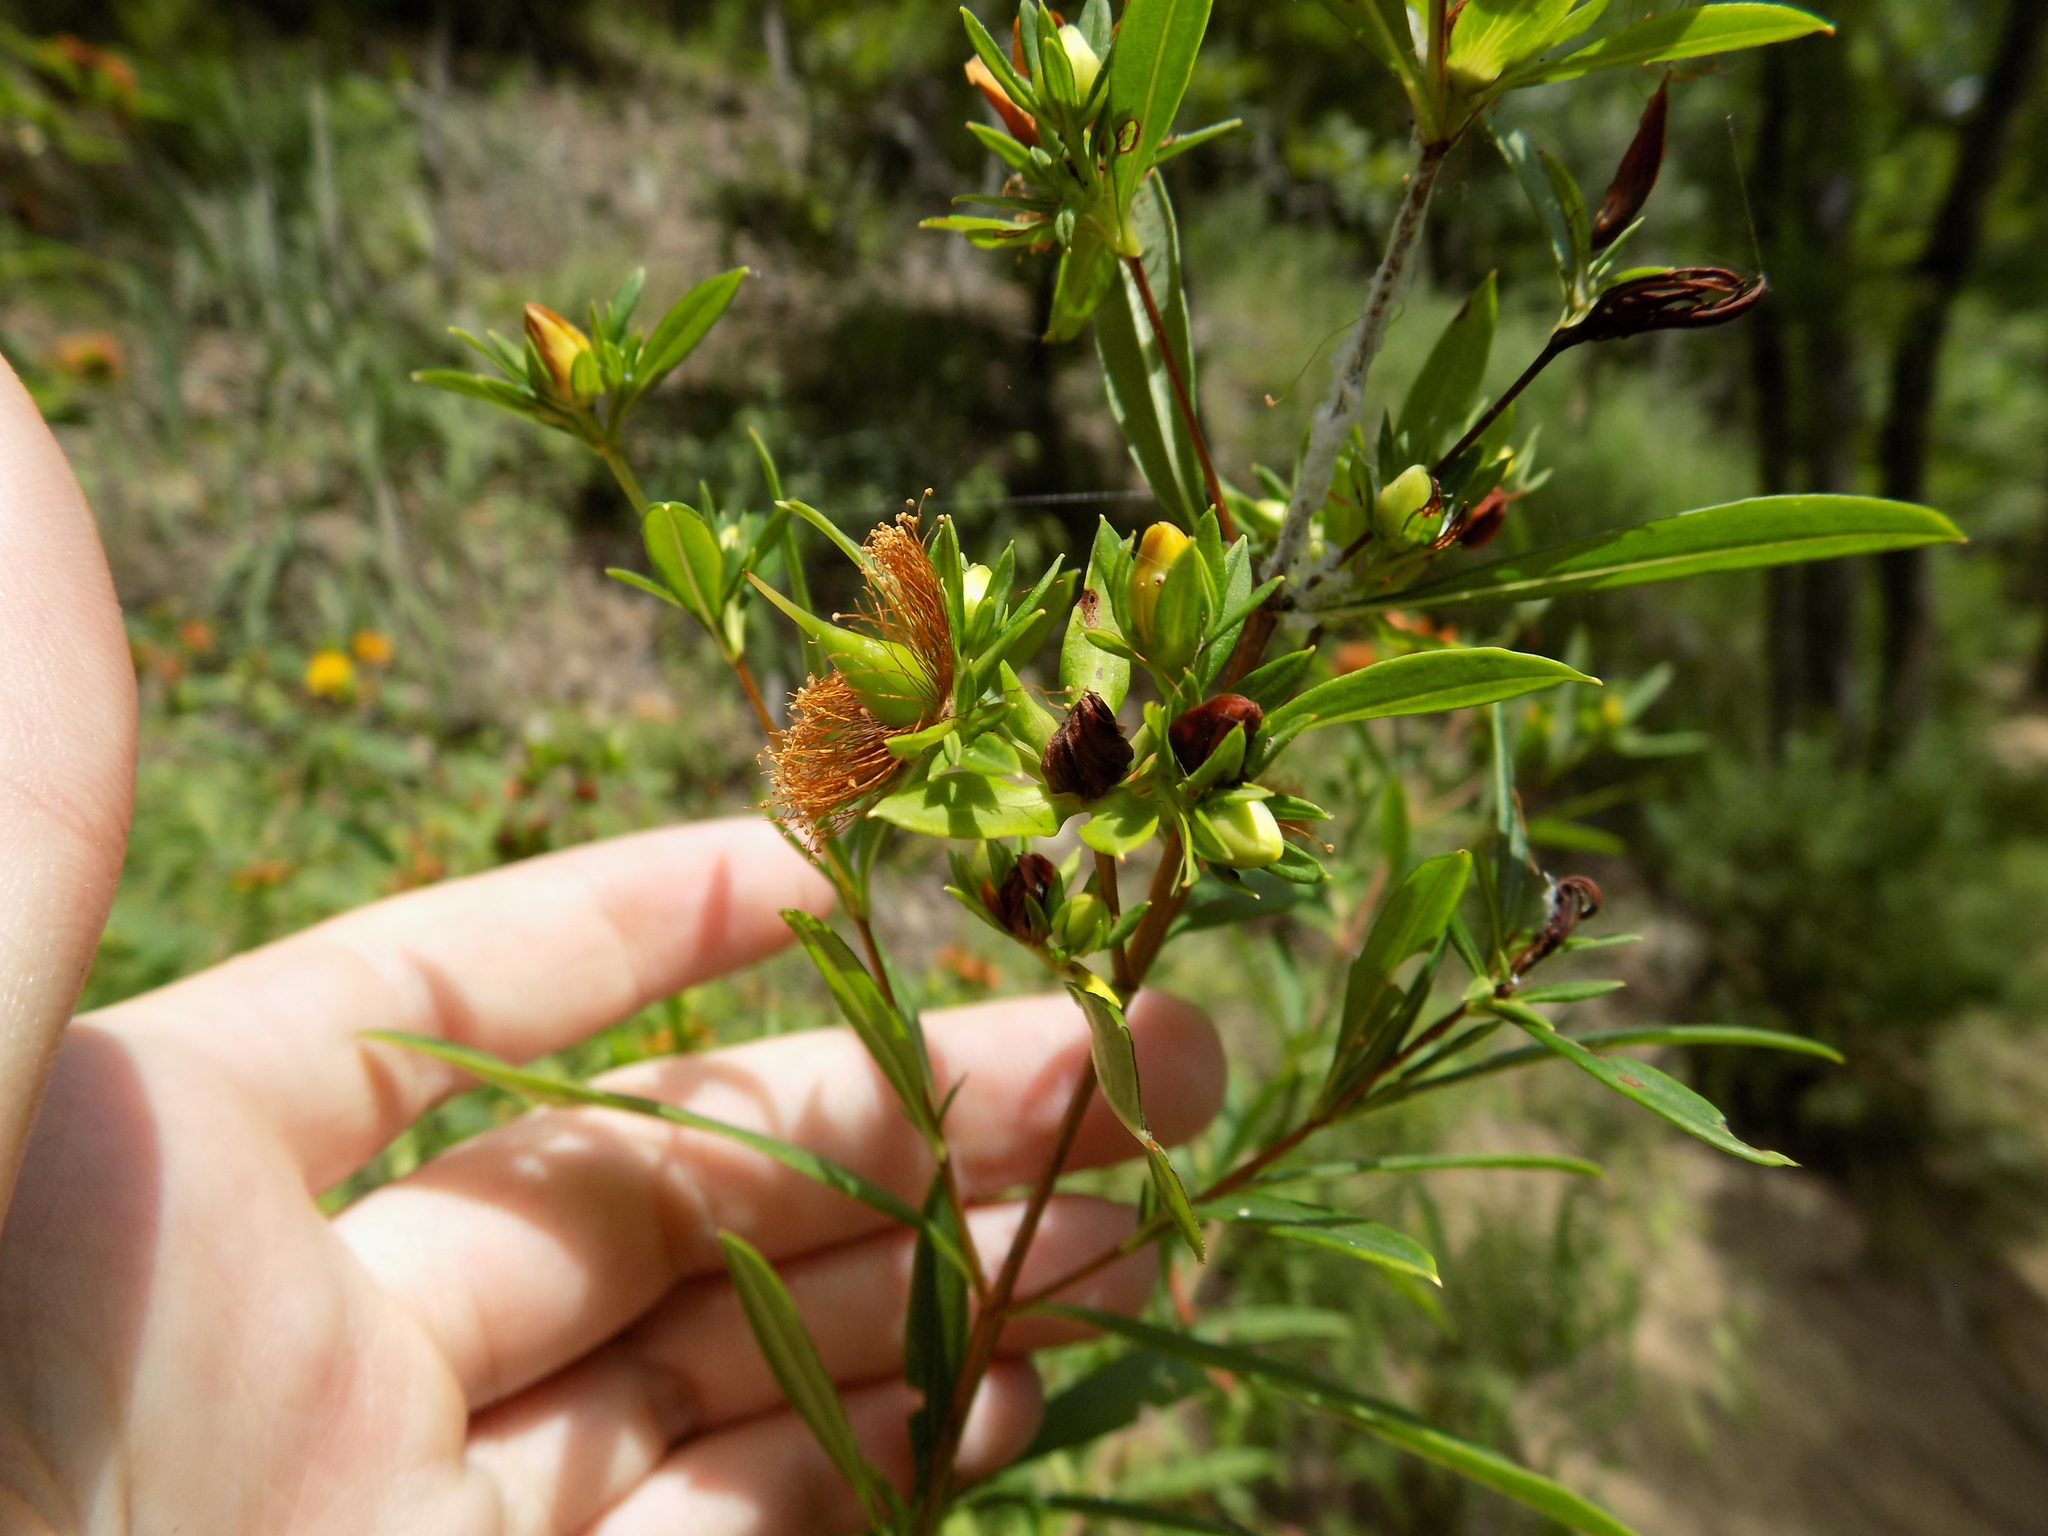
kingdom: Plantae
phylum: Tracheophyta
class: Magnoliopsida
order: Malpighiales
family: Hypericaceae
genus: Hypericum
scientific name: Hypericum prolificum
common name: Shrubby st. john's-wort
